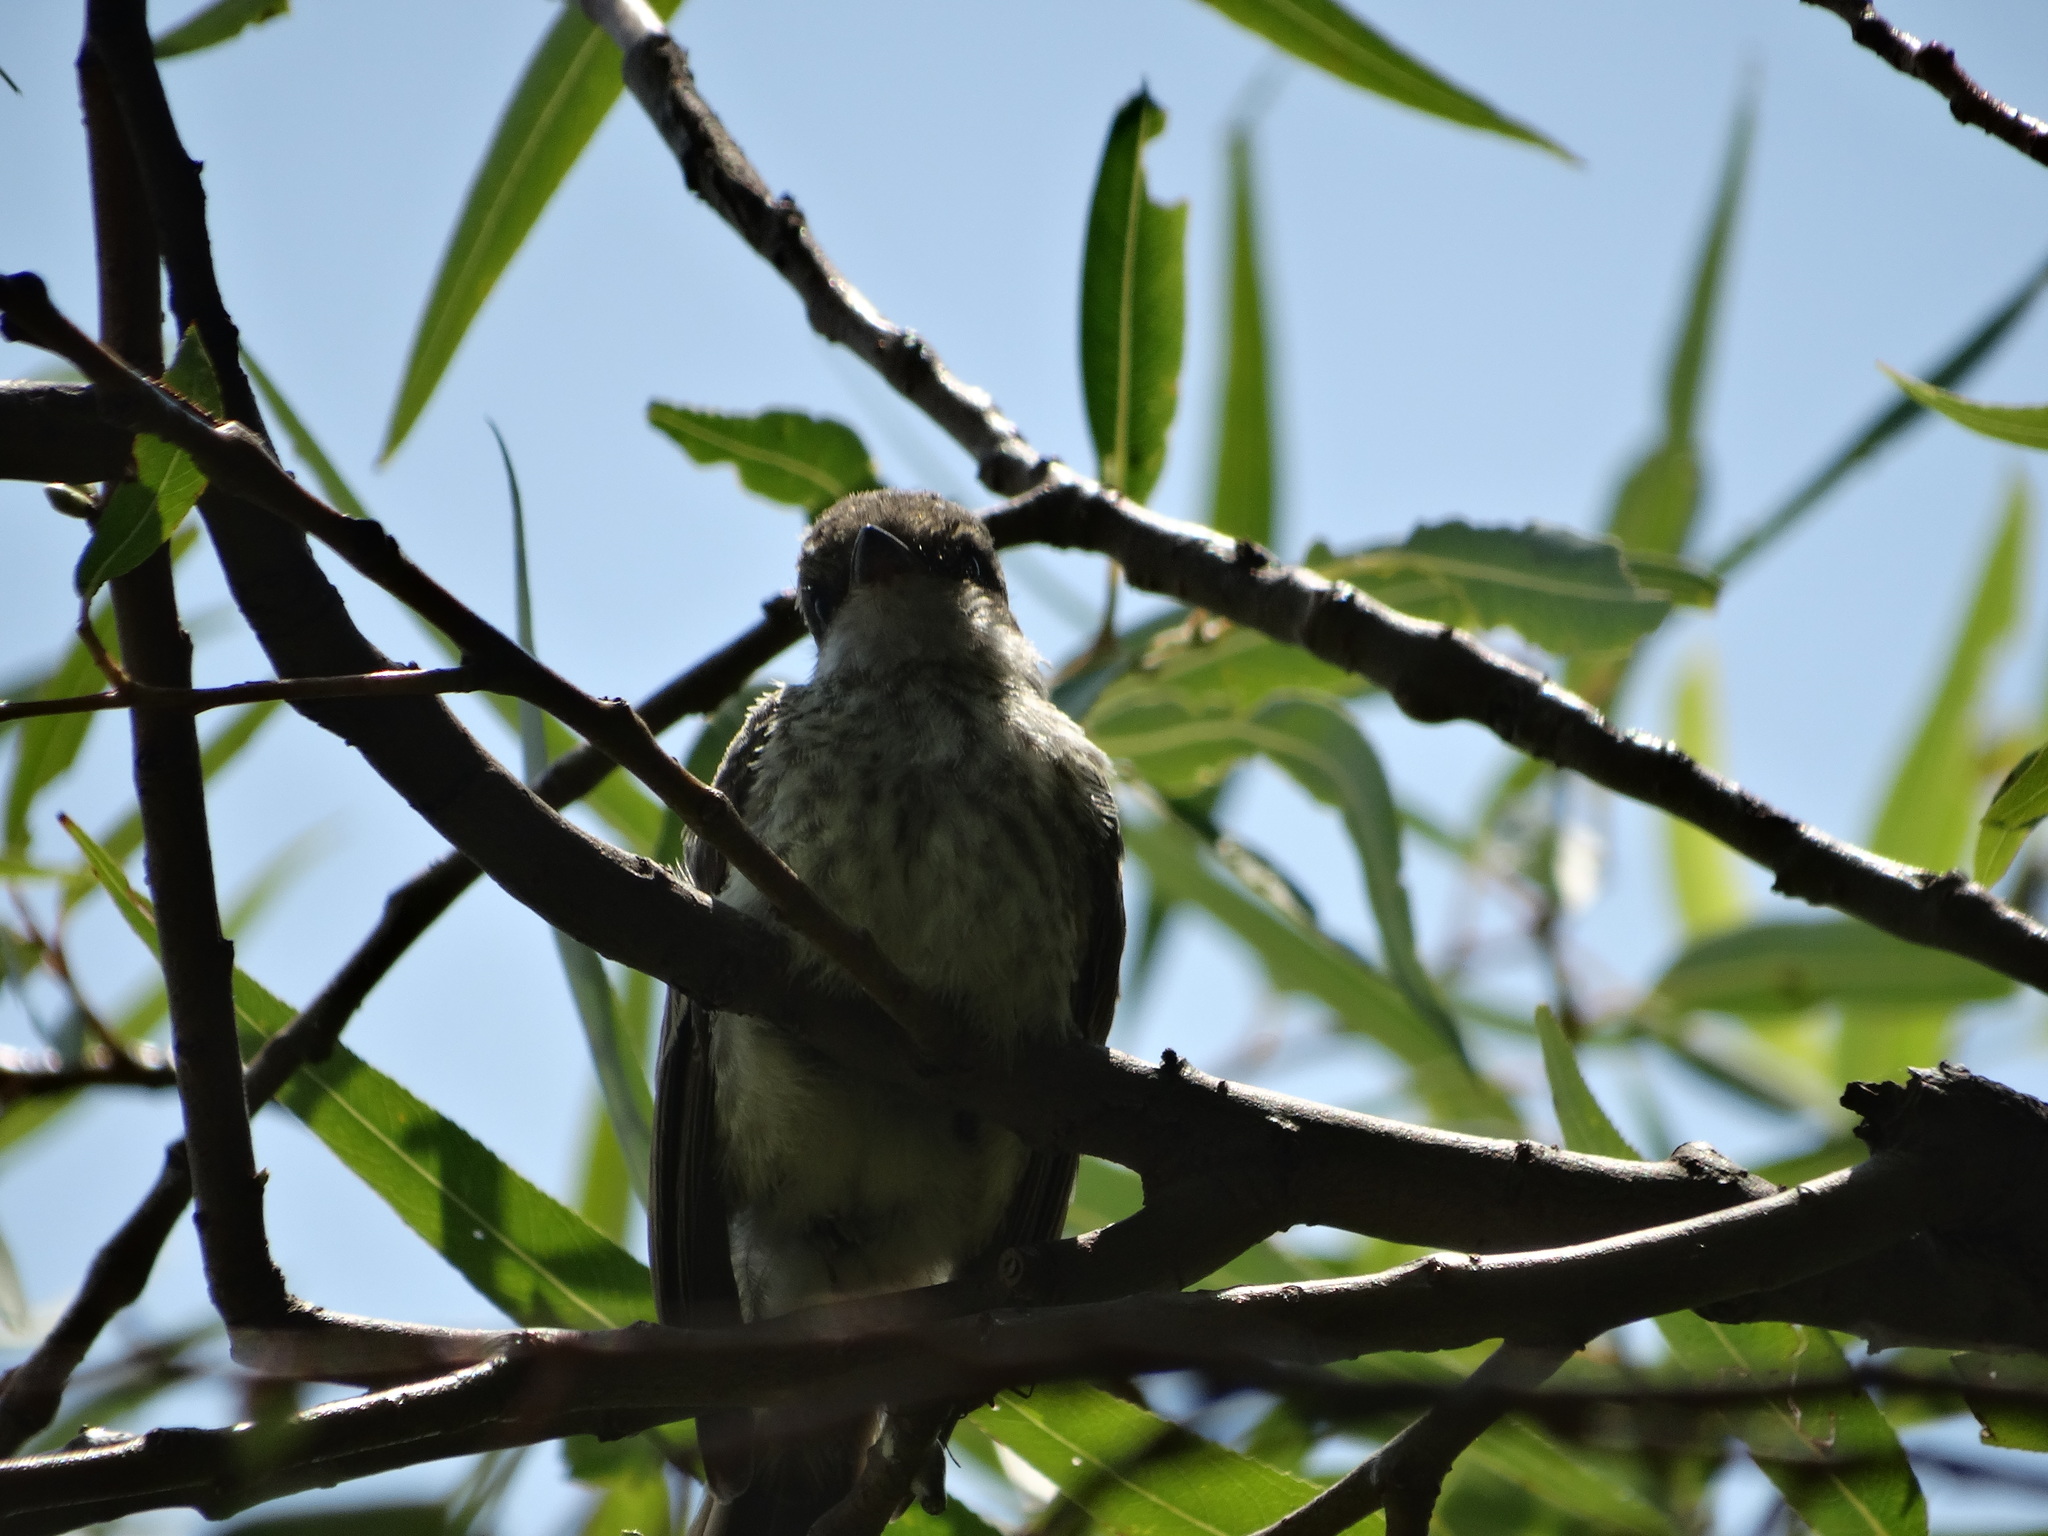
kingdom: Animalia
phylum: Chordata
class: Aves
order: Passeriformes
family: Tyrannidae
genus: Pyrocephalus
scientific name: Pyrocephalus rubinus
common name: Vermilion flycatcher
